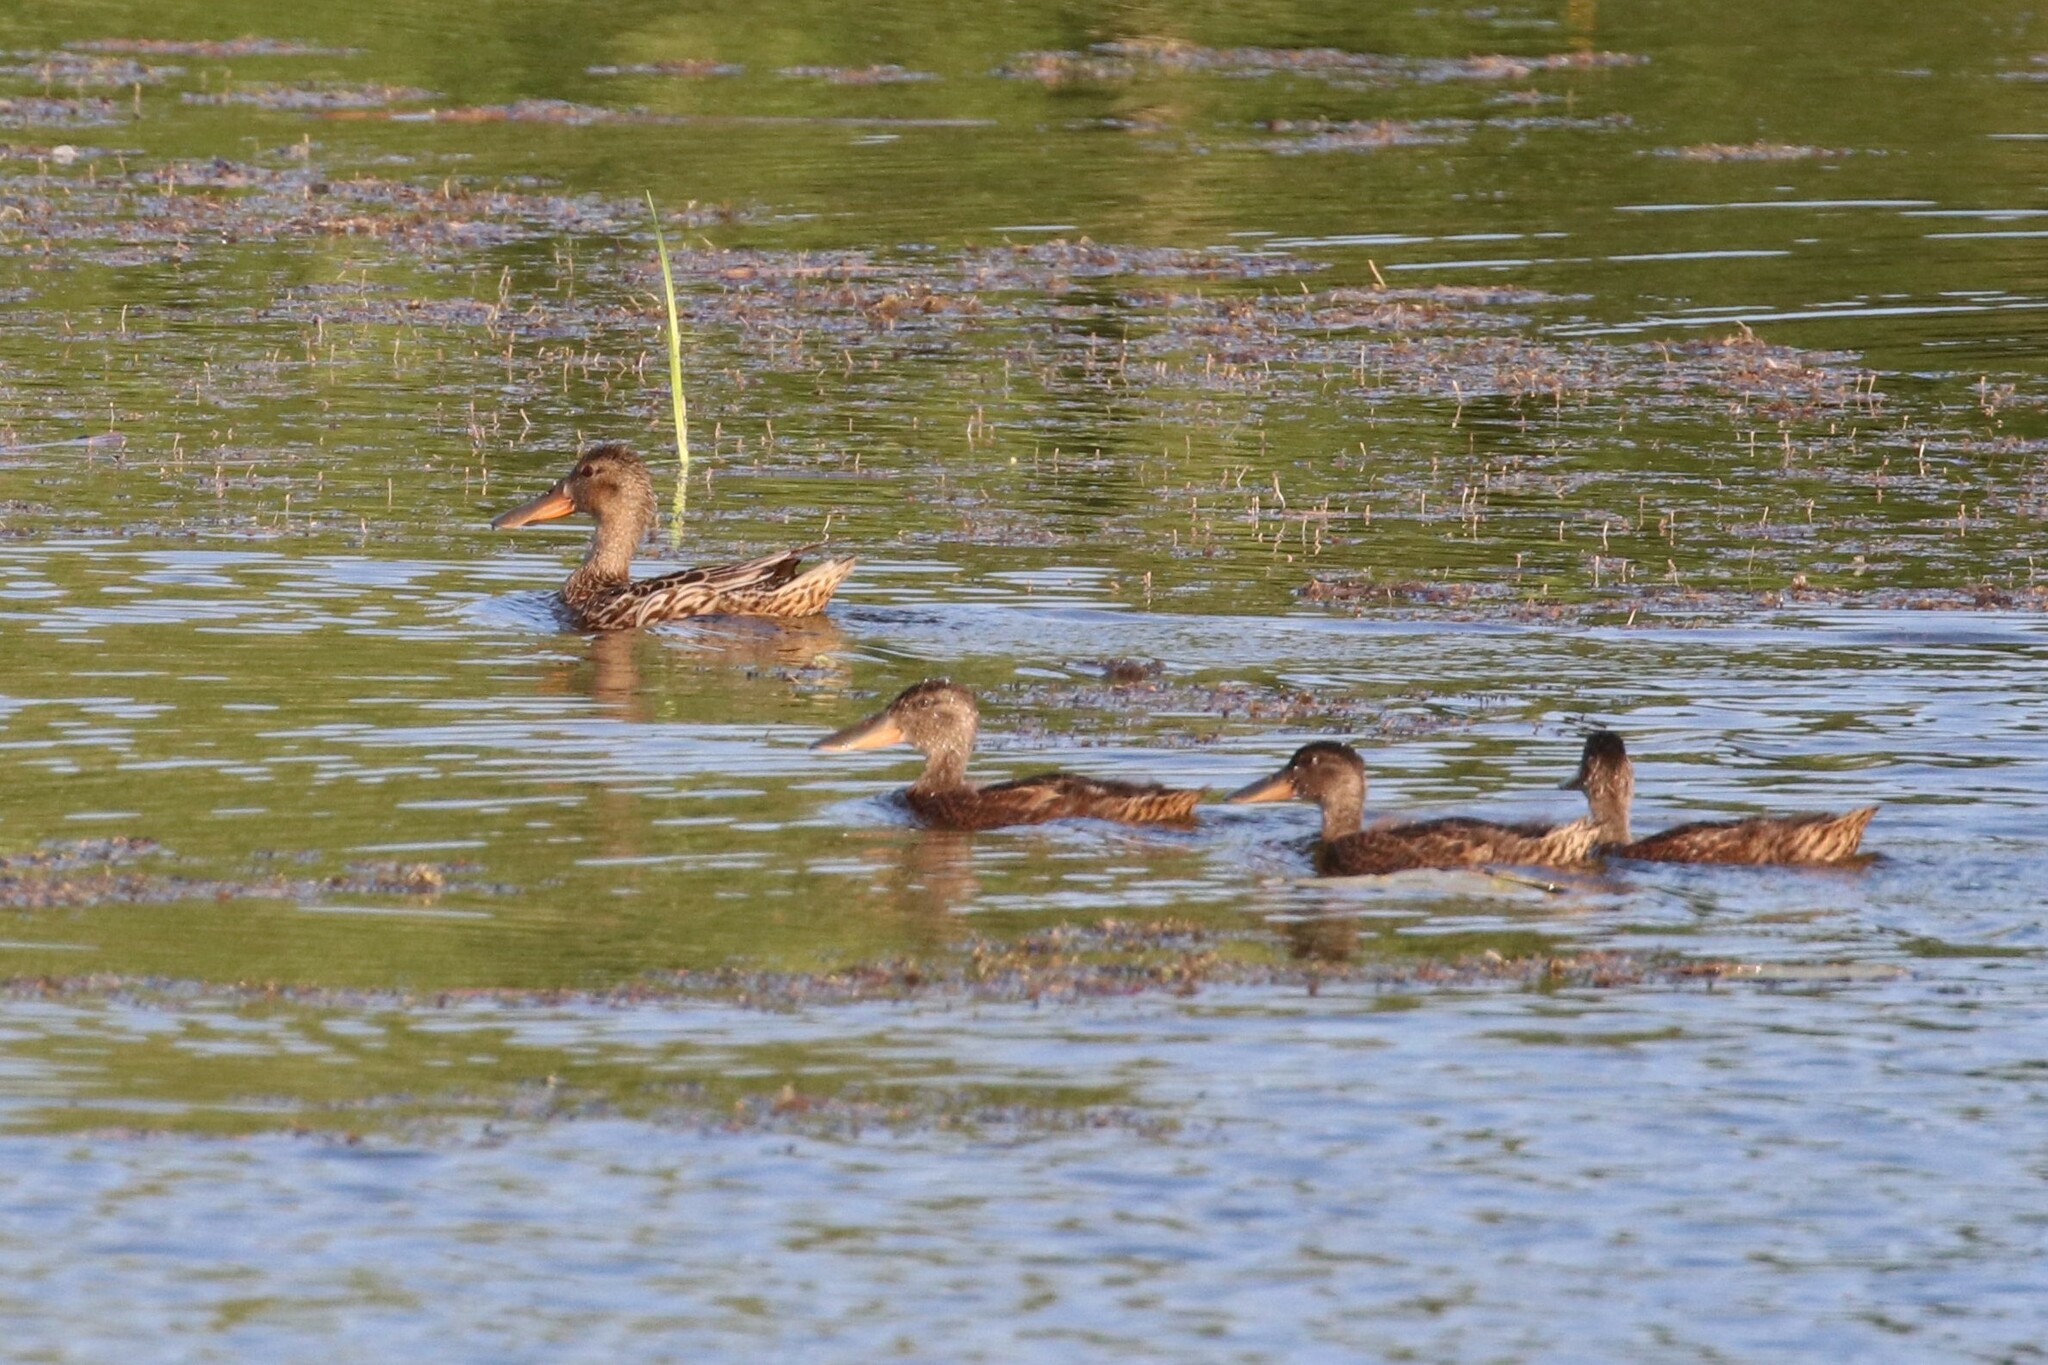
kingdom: Animalia
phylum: Chordata
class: Aves
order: Anseriformes
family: Anatidae
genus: Spatula
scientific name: Spatula clypeata
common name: Northern shoveler
